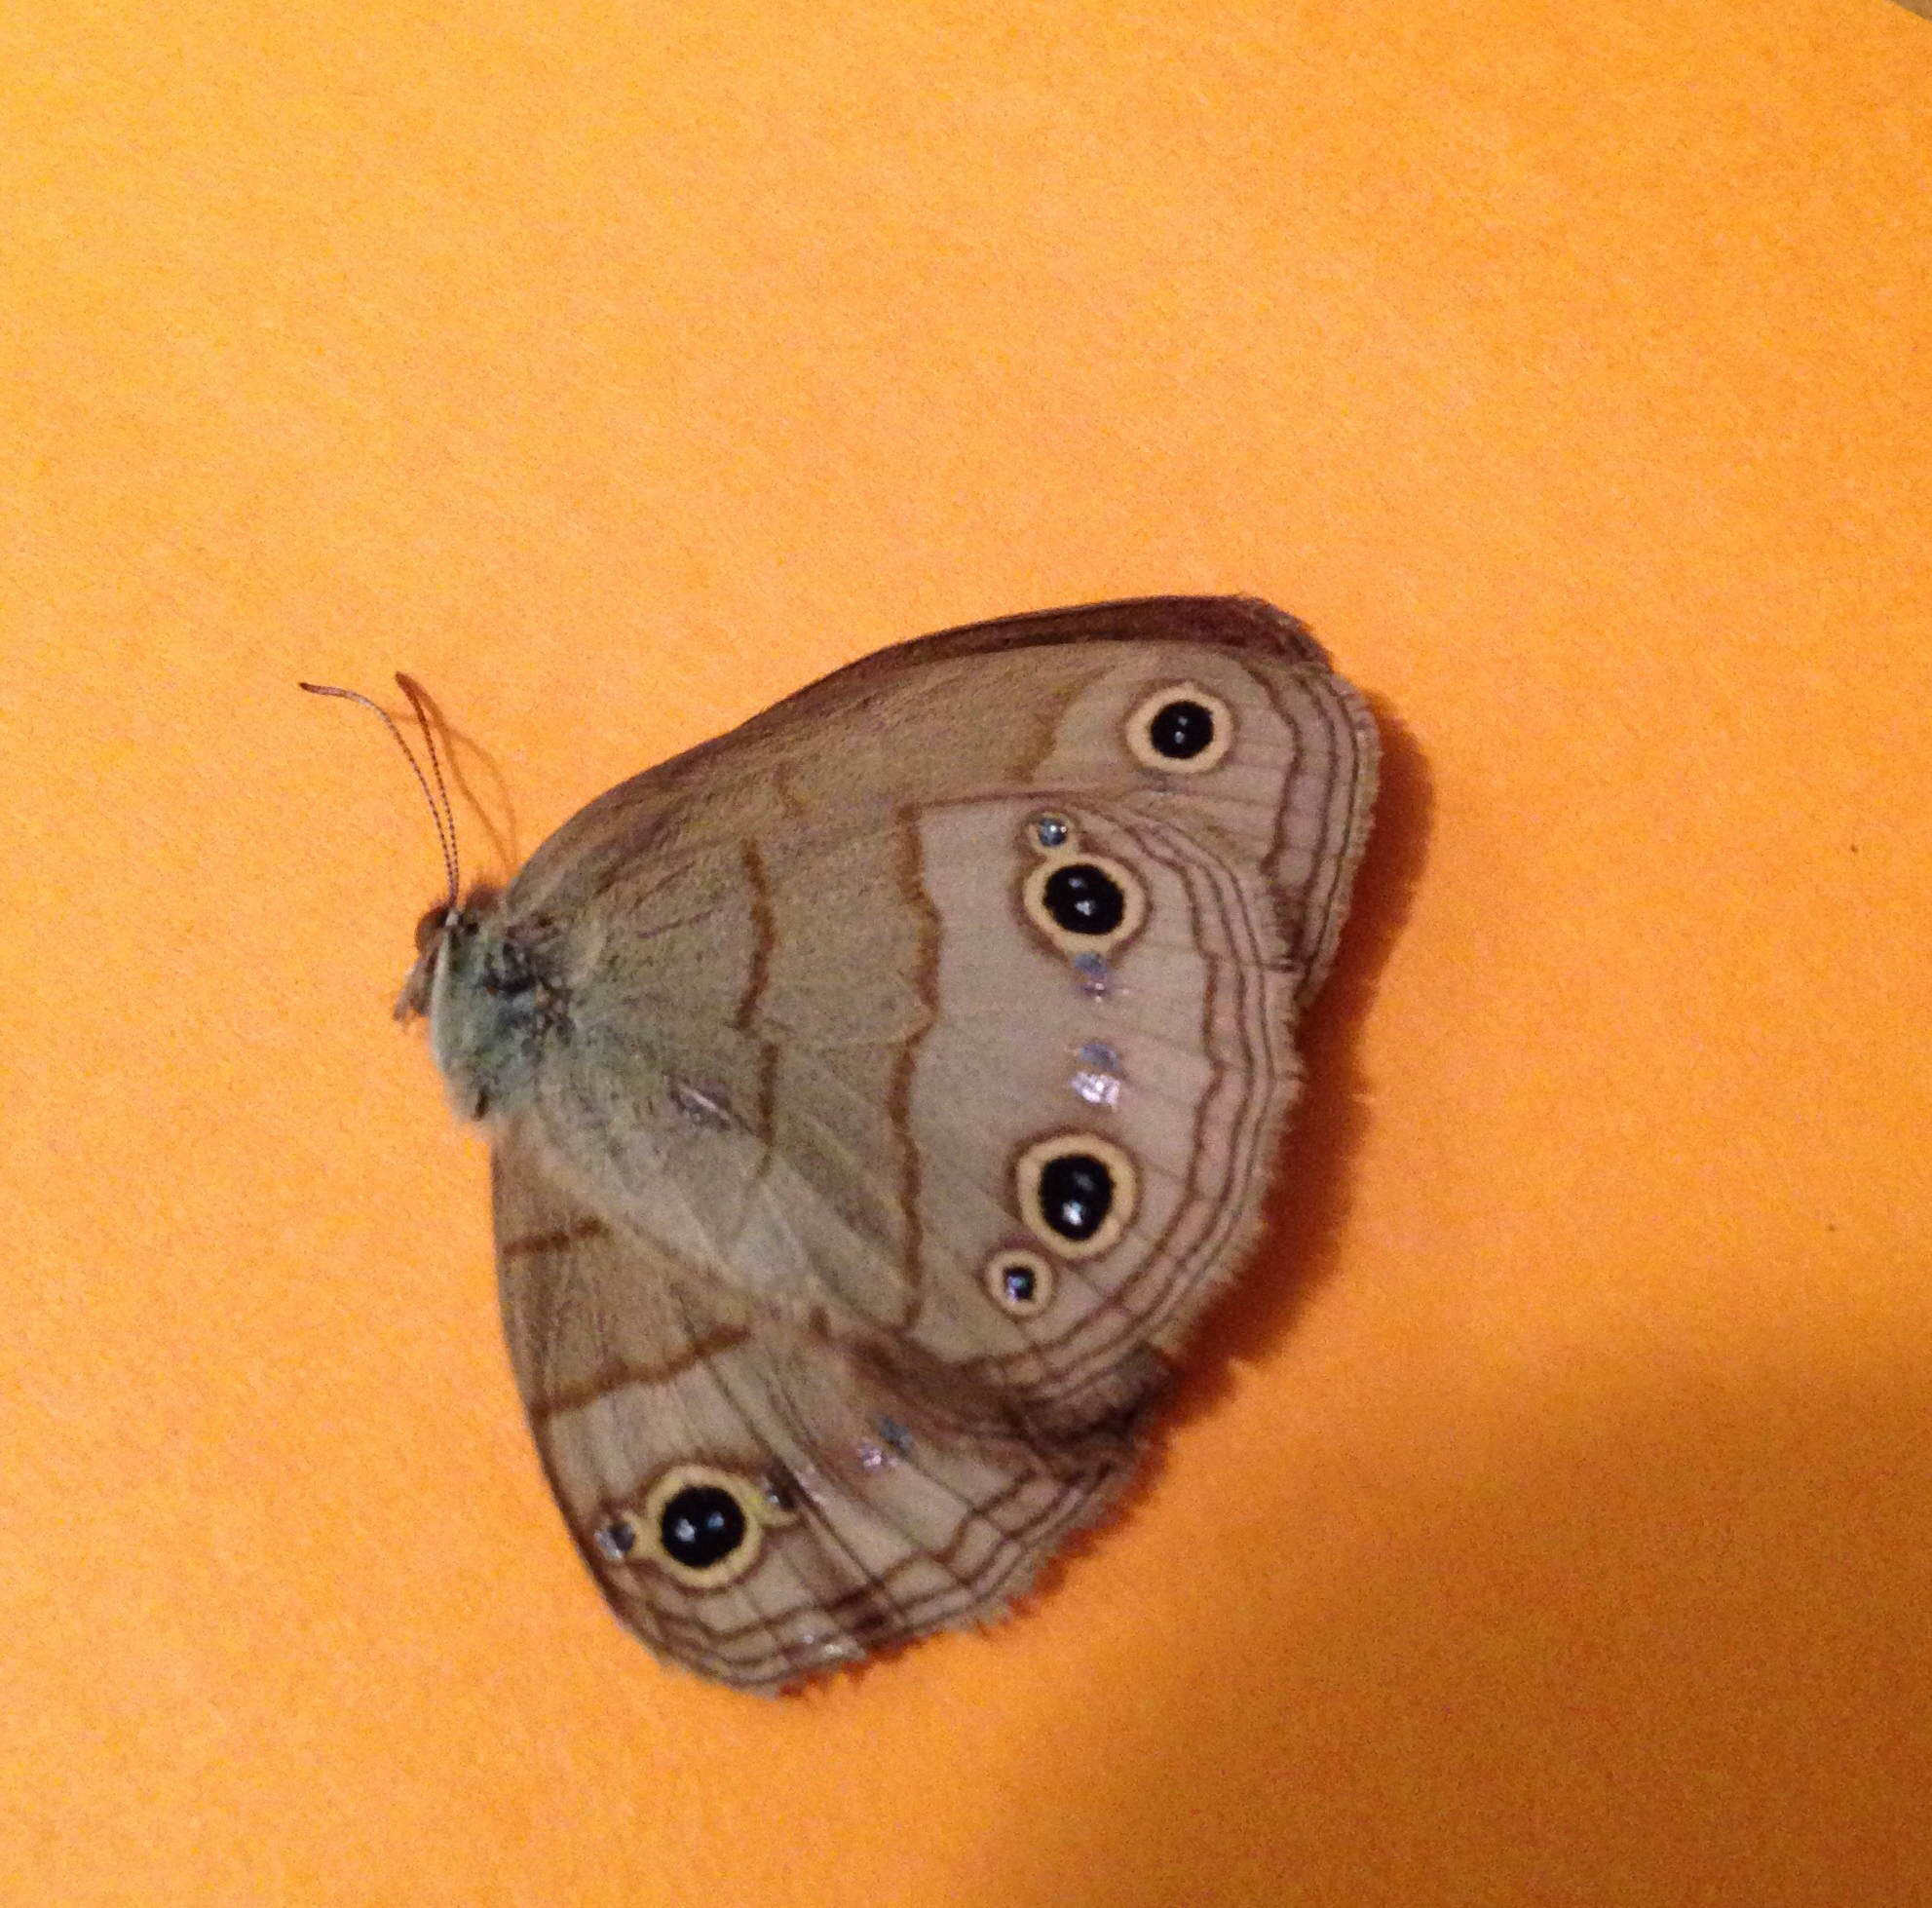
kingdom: Animalia
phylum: Arthropoda
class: Insecta
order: Lepidoptera
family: Nymphalidae
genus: Euptychia
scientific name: Euptychia cymela
